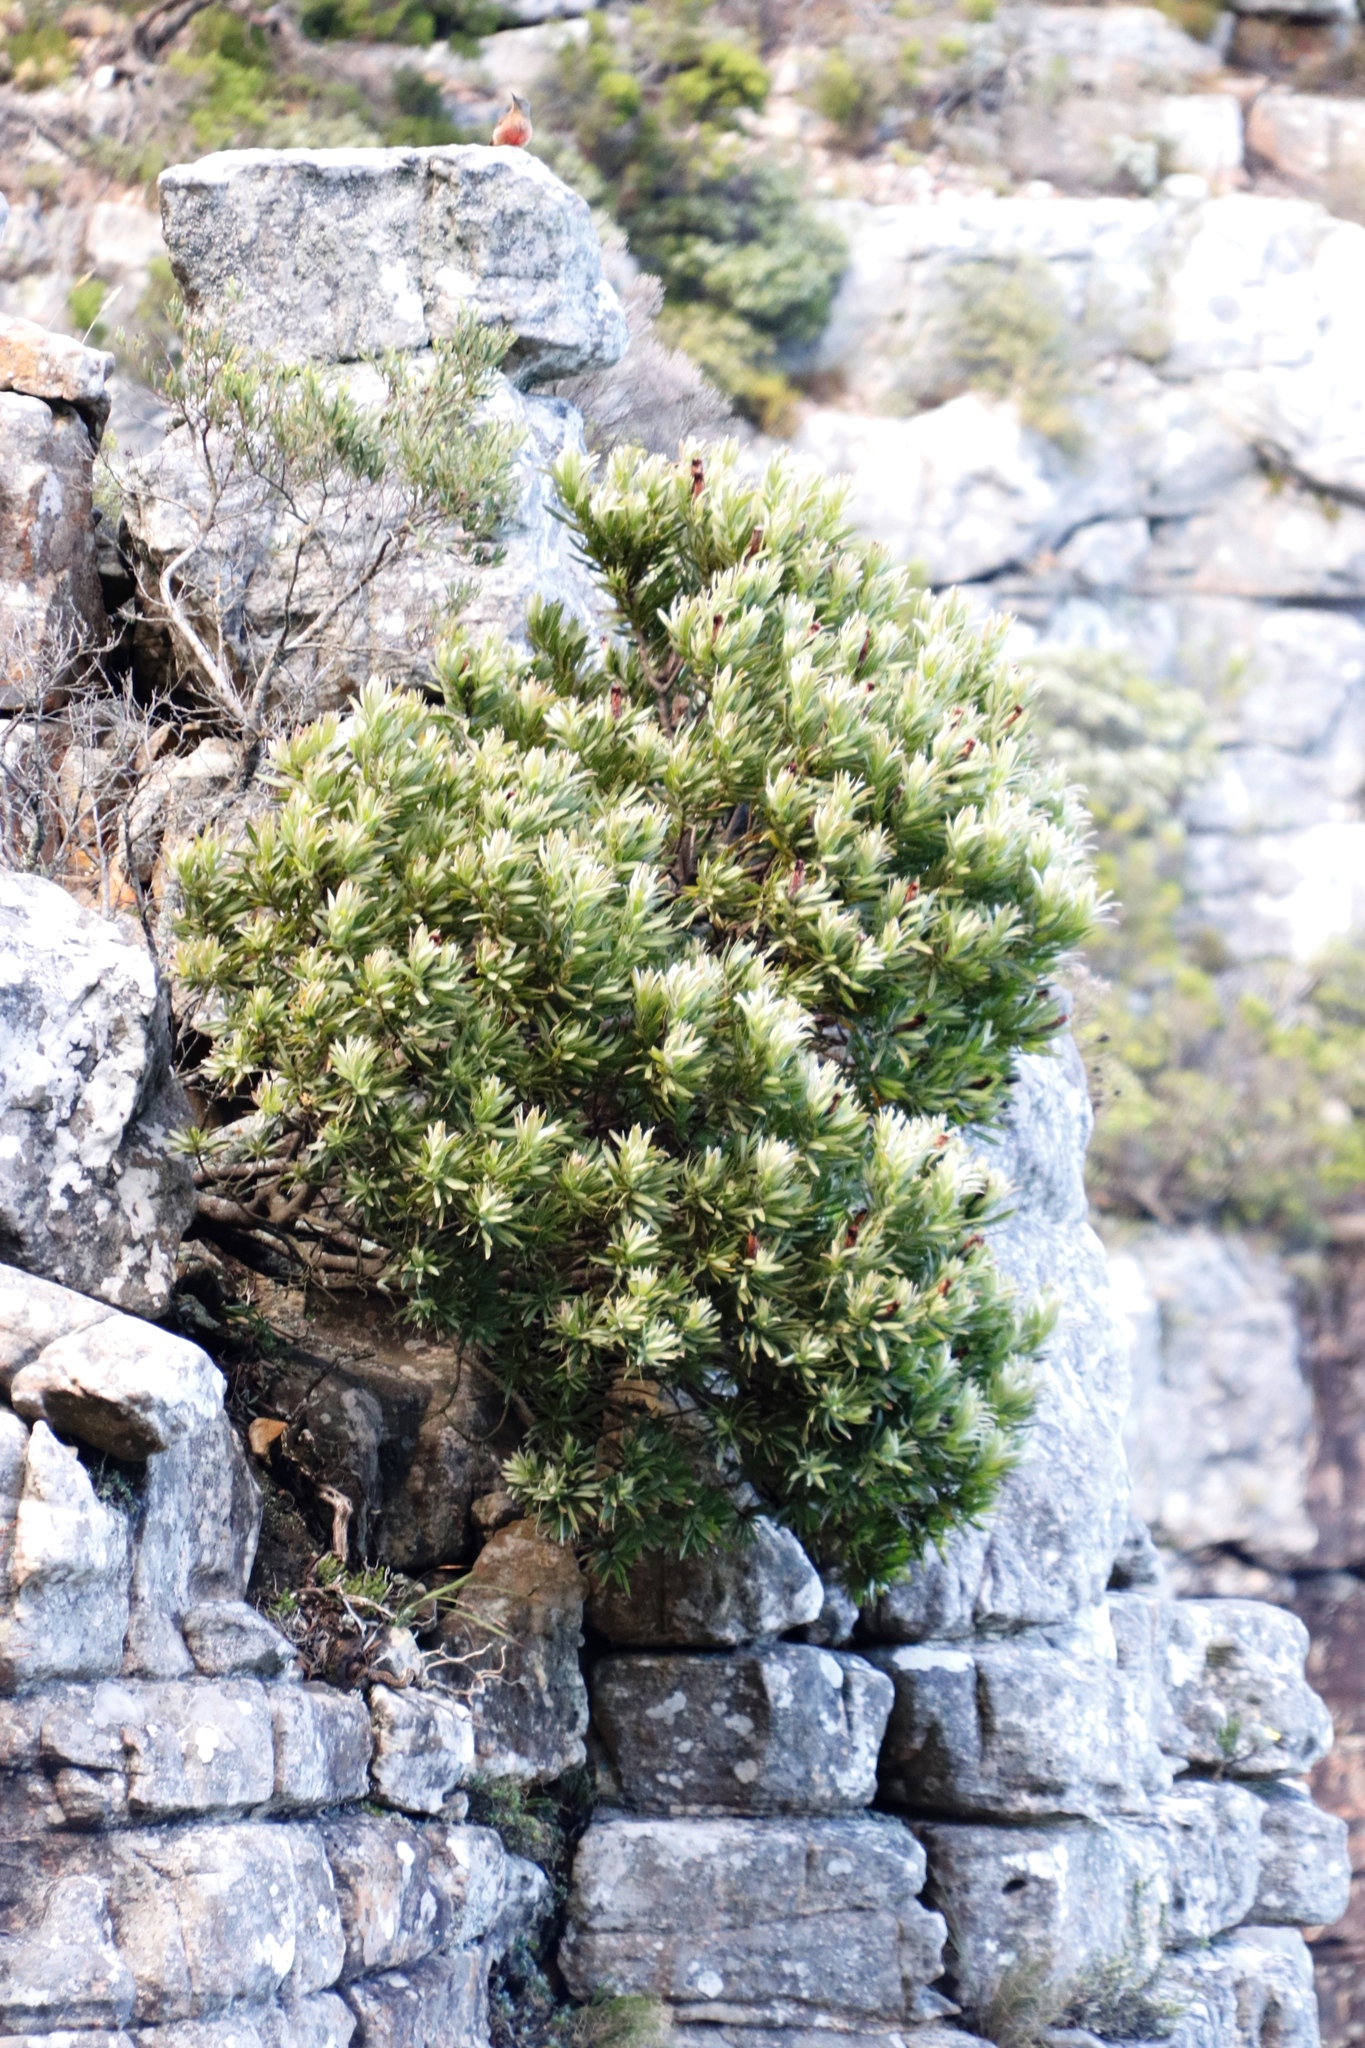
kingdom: Plantae
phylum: Tracheophyta
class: Magnoliopsida
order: Proteales
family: Proteaceae
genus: Protea
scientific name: Protea lepidocarpodendron
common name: Black-bearded protea
